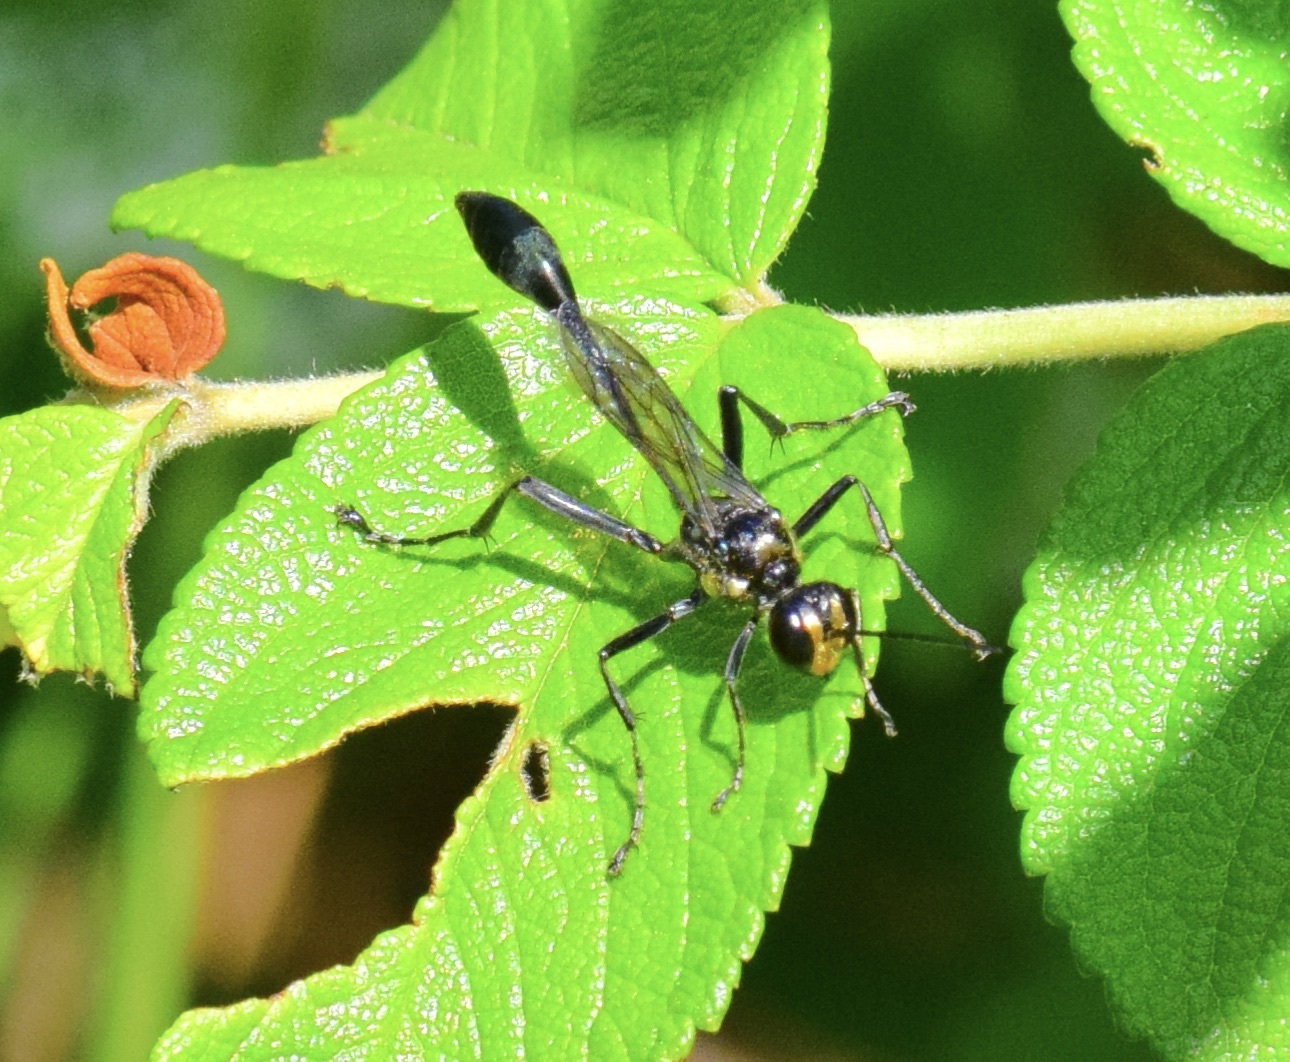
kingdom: Animalia
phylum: Arthropoda
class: Insecta
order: Hymenoptera
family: Sphecidae
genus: Eremnophila
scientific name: Eremnophila aureonotata
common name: Gold-marked thread-waisted wasp
